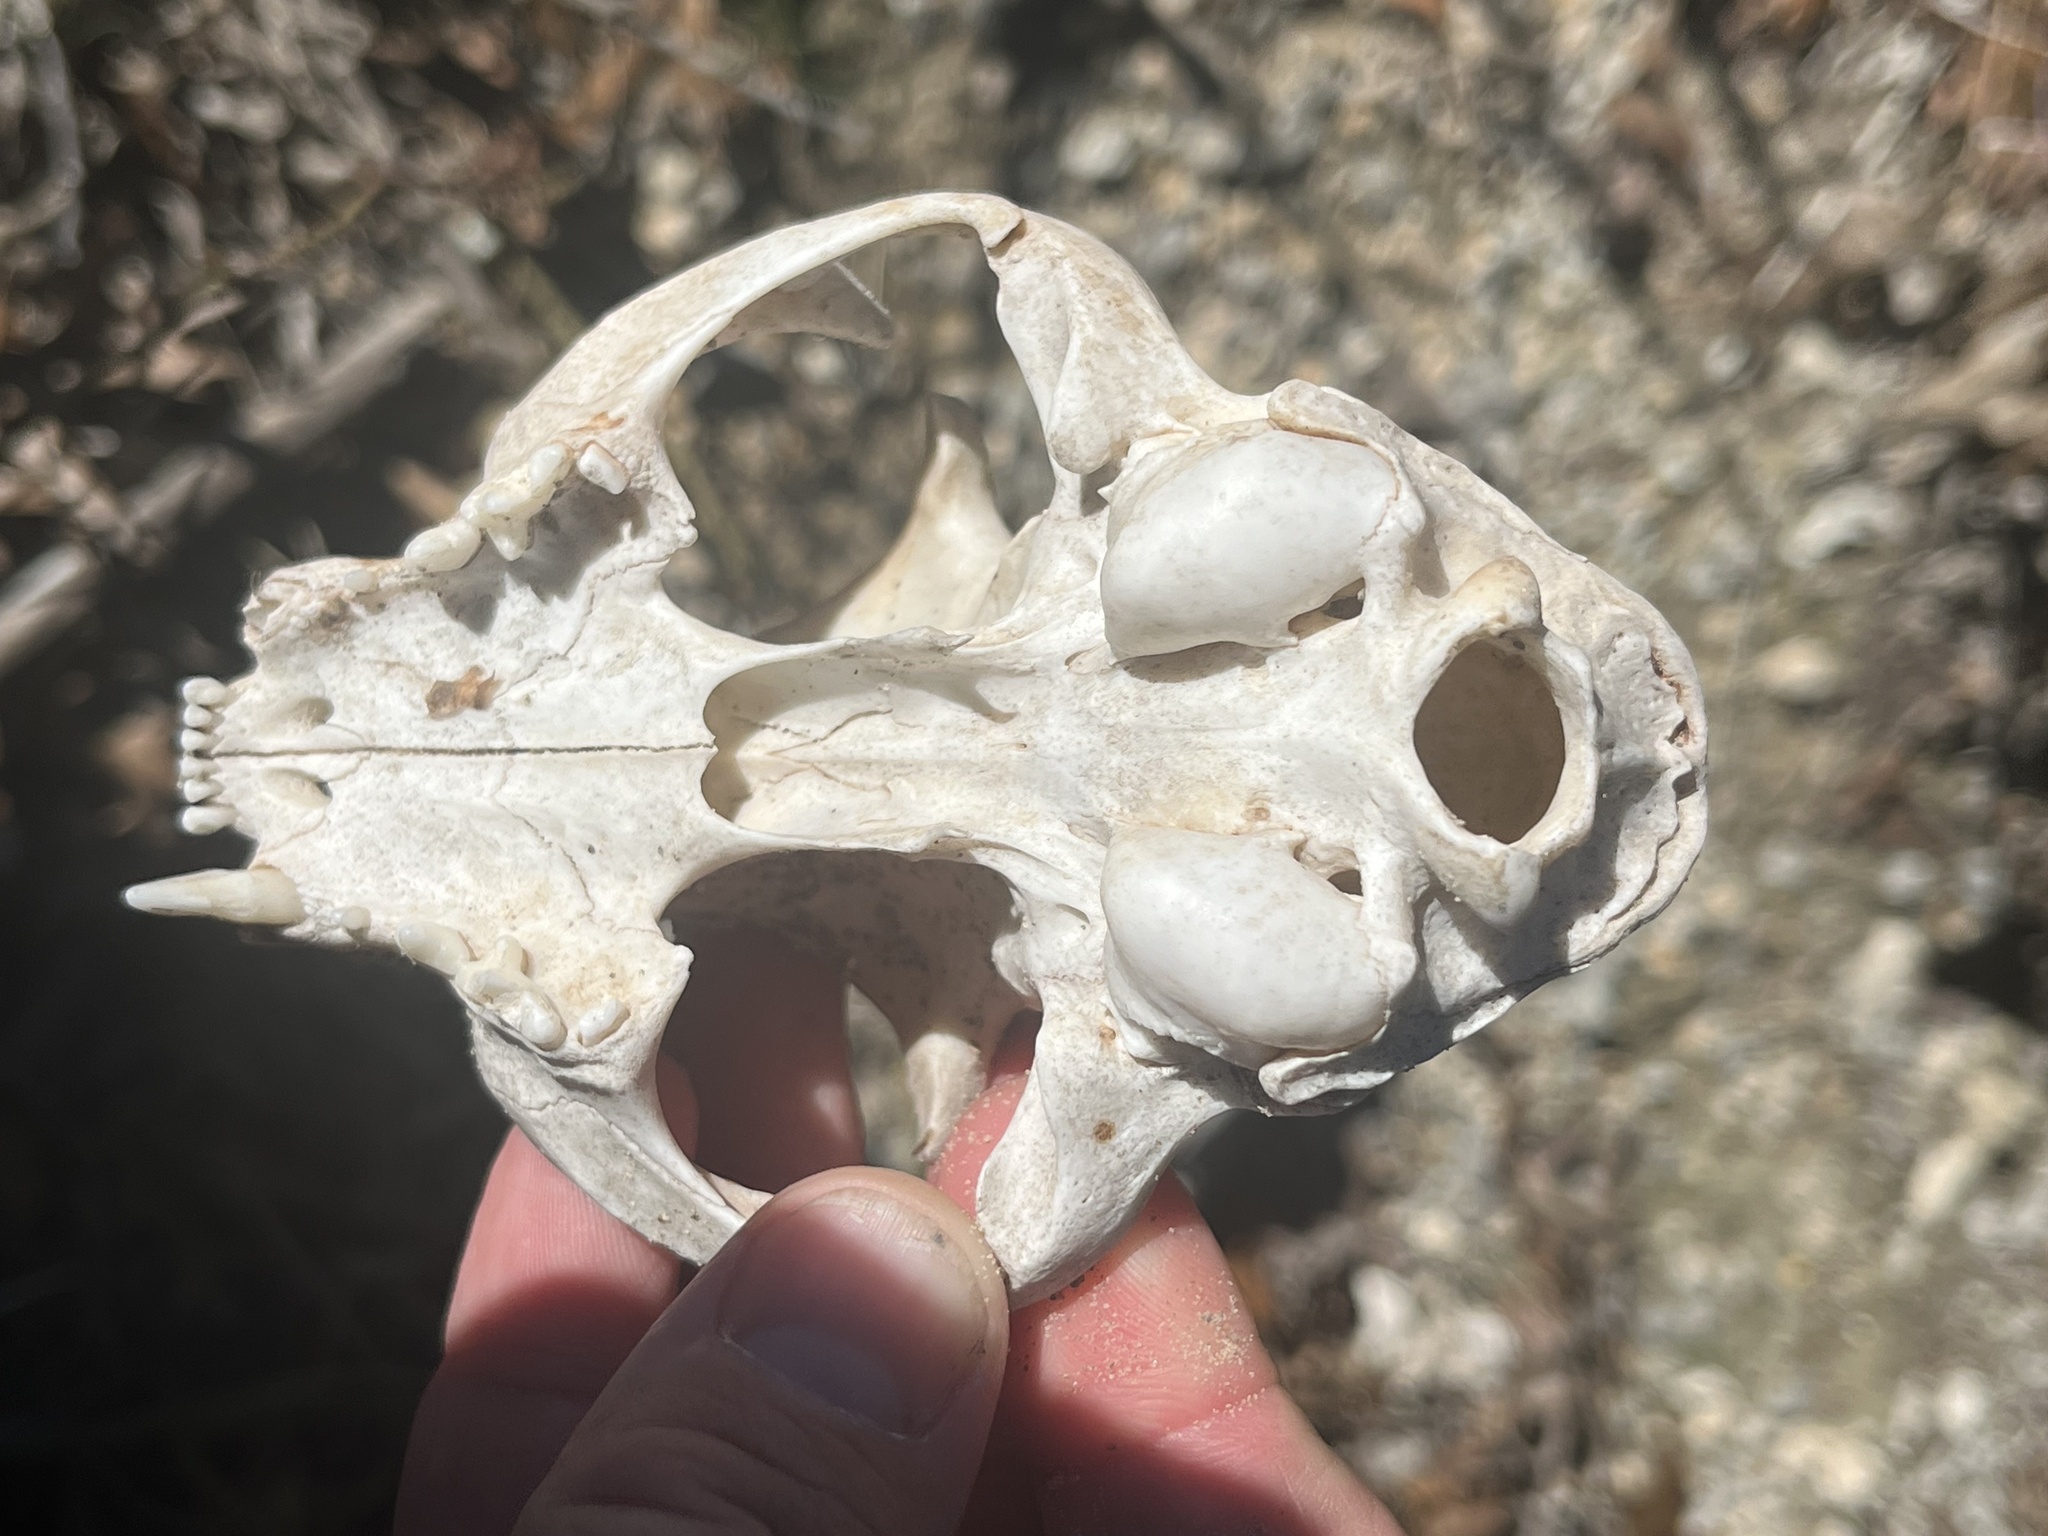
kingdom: Animalia
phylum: Chordata
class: Mammalia
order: Carnivora
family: Felidae
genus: Felis
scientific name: Felis catus
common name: Domestic cat
